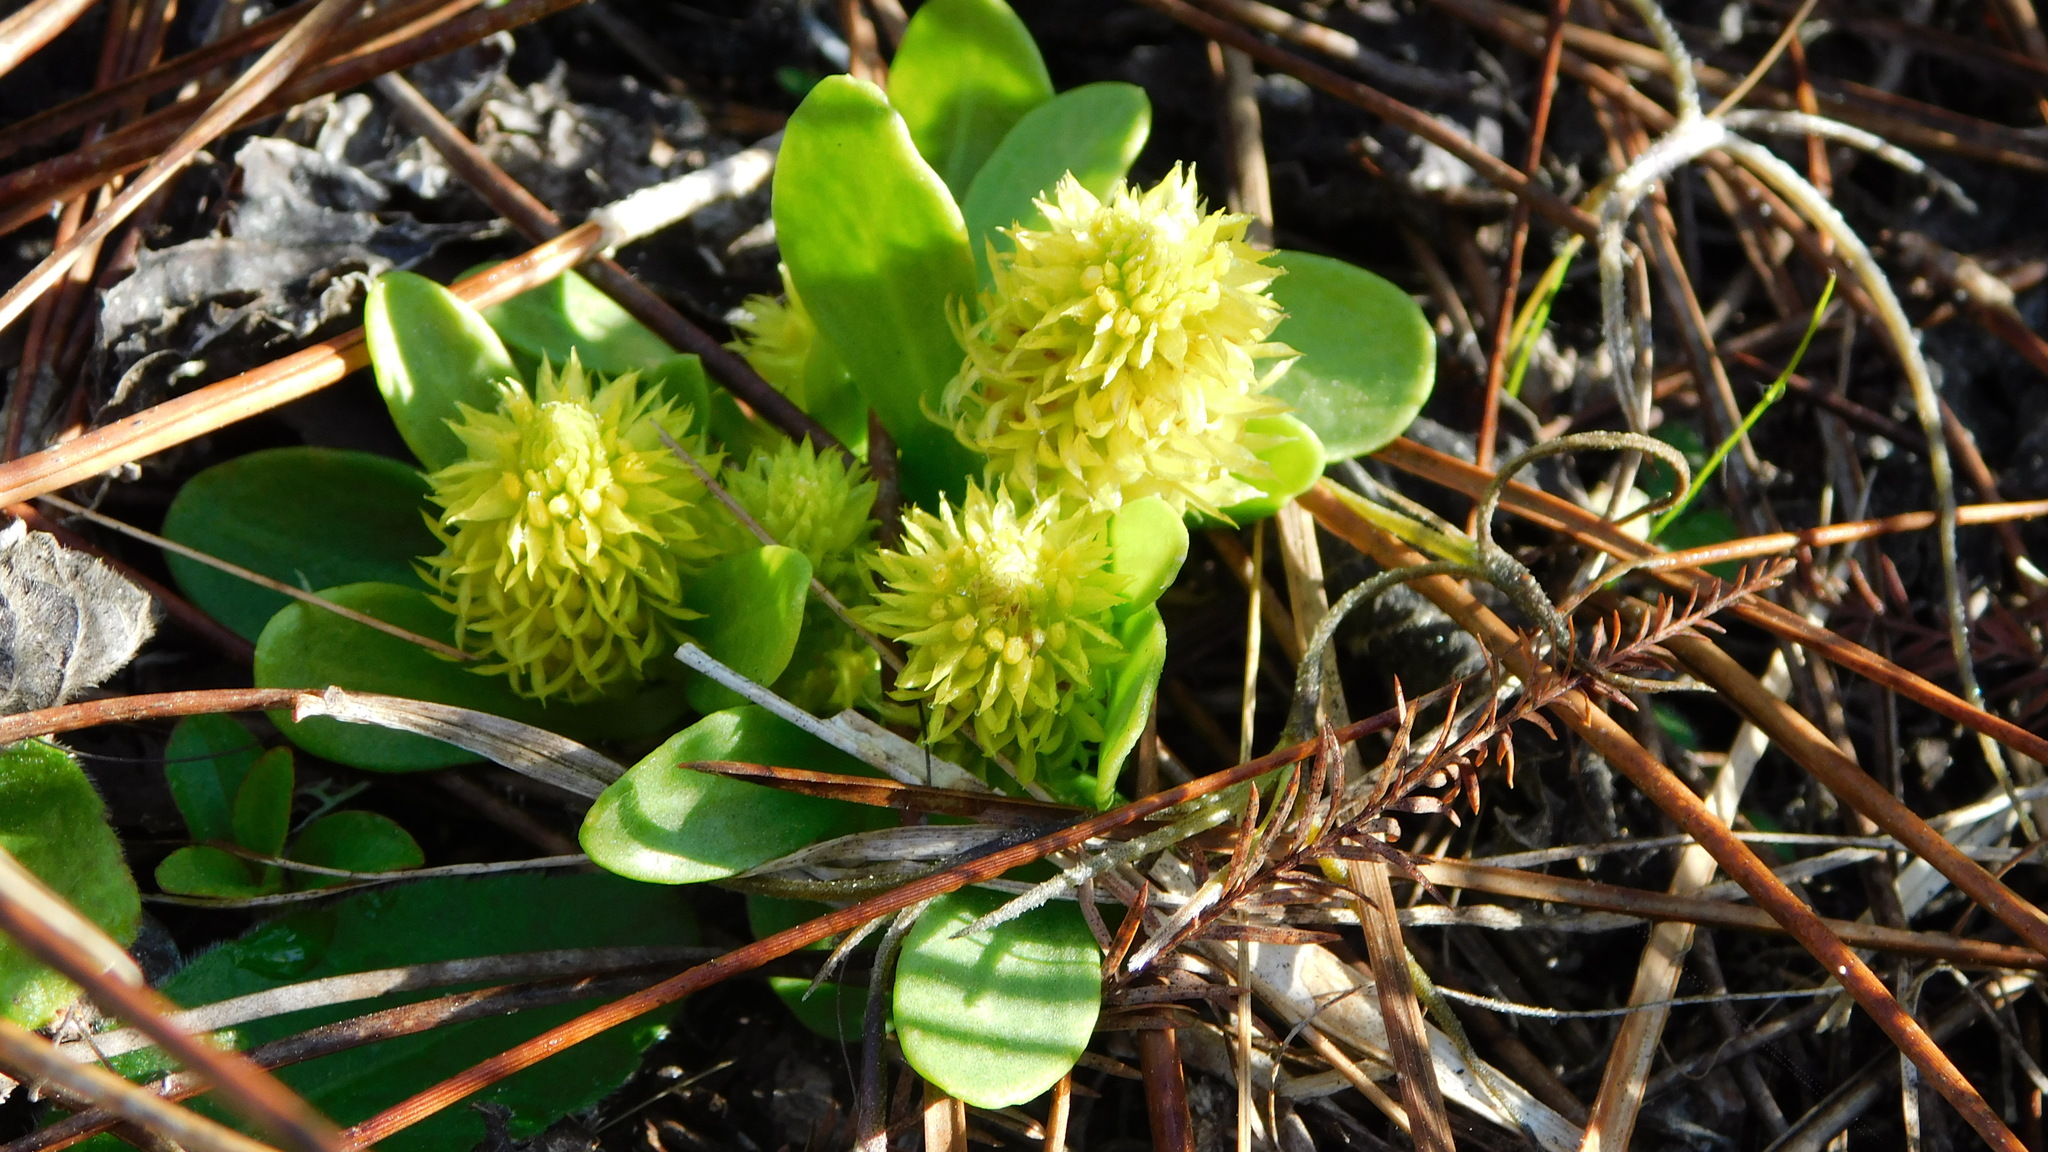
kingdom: Plantae
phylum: Tracheophyta
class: Magnoliopsida
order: Fabales
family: Polygalaceae
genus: Polygala
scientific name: Polygala nana
